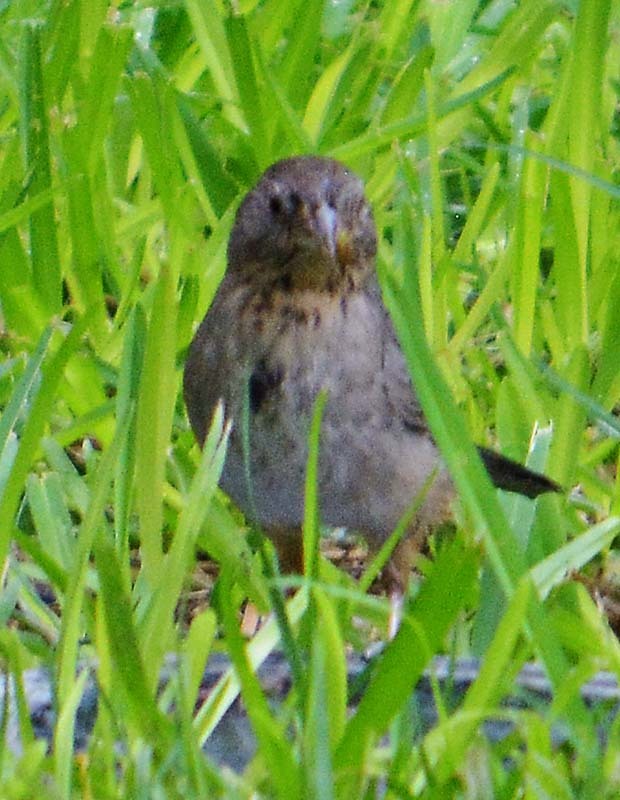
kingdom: Animalia
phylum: Chordata
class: Aves
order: Passeriformes
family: Passerellidae
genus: Melozone
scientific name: Melozone fusca
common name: Canyon towhee
